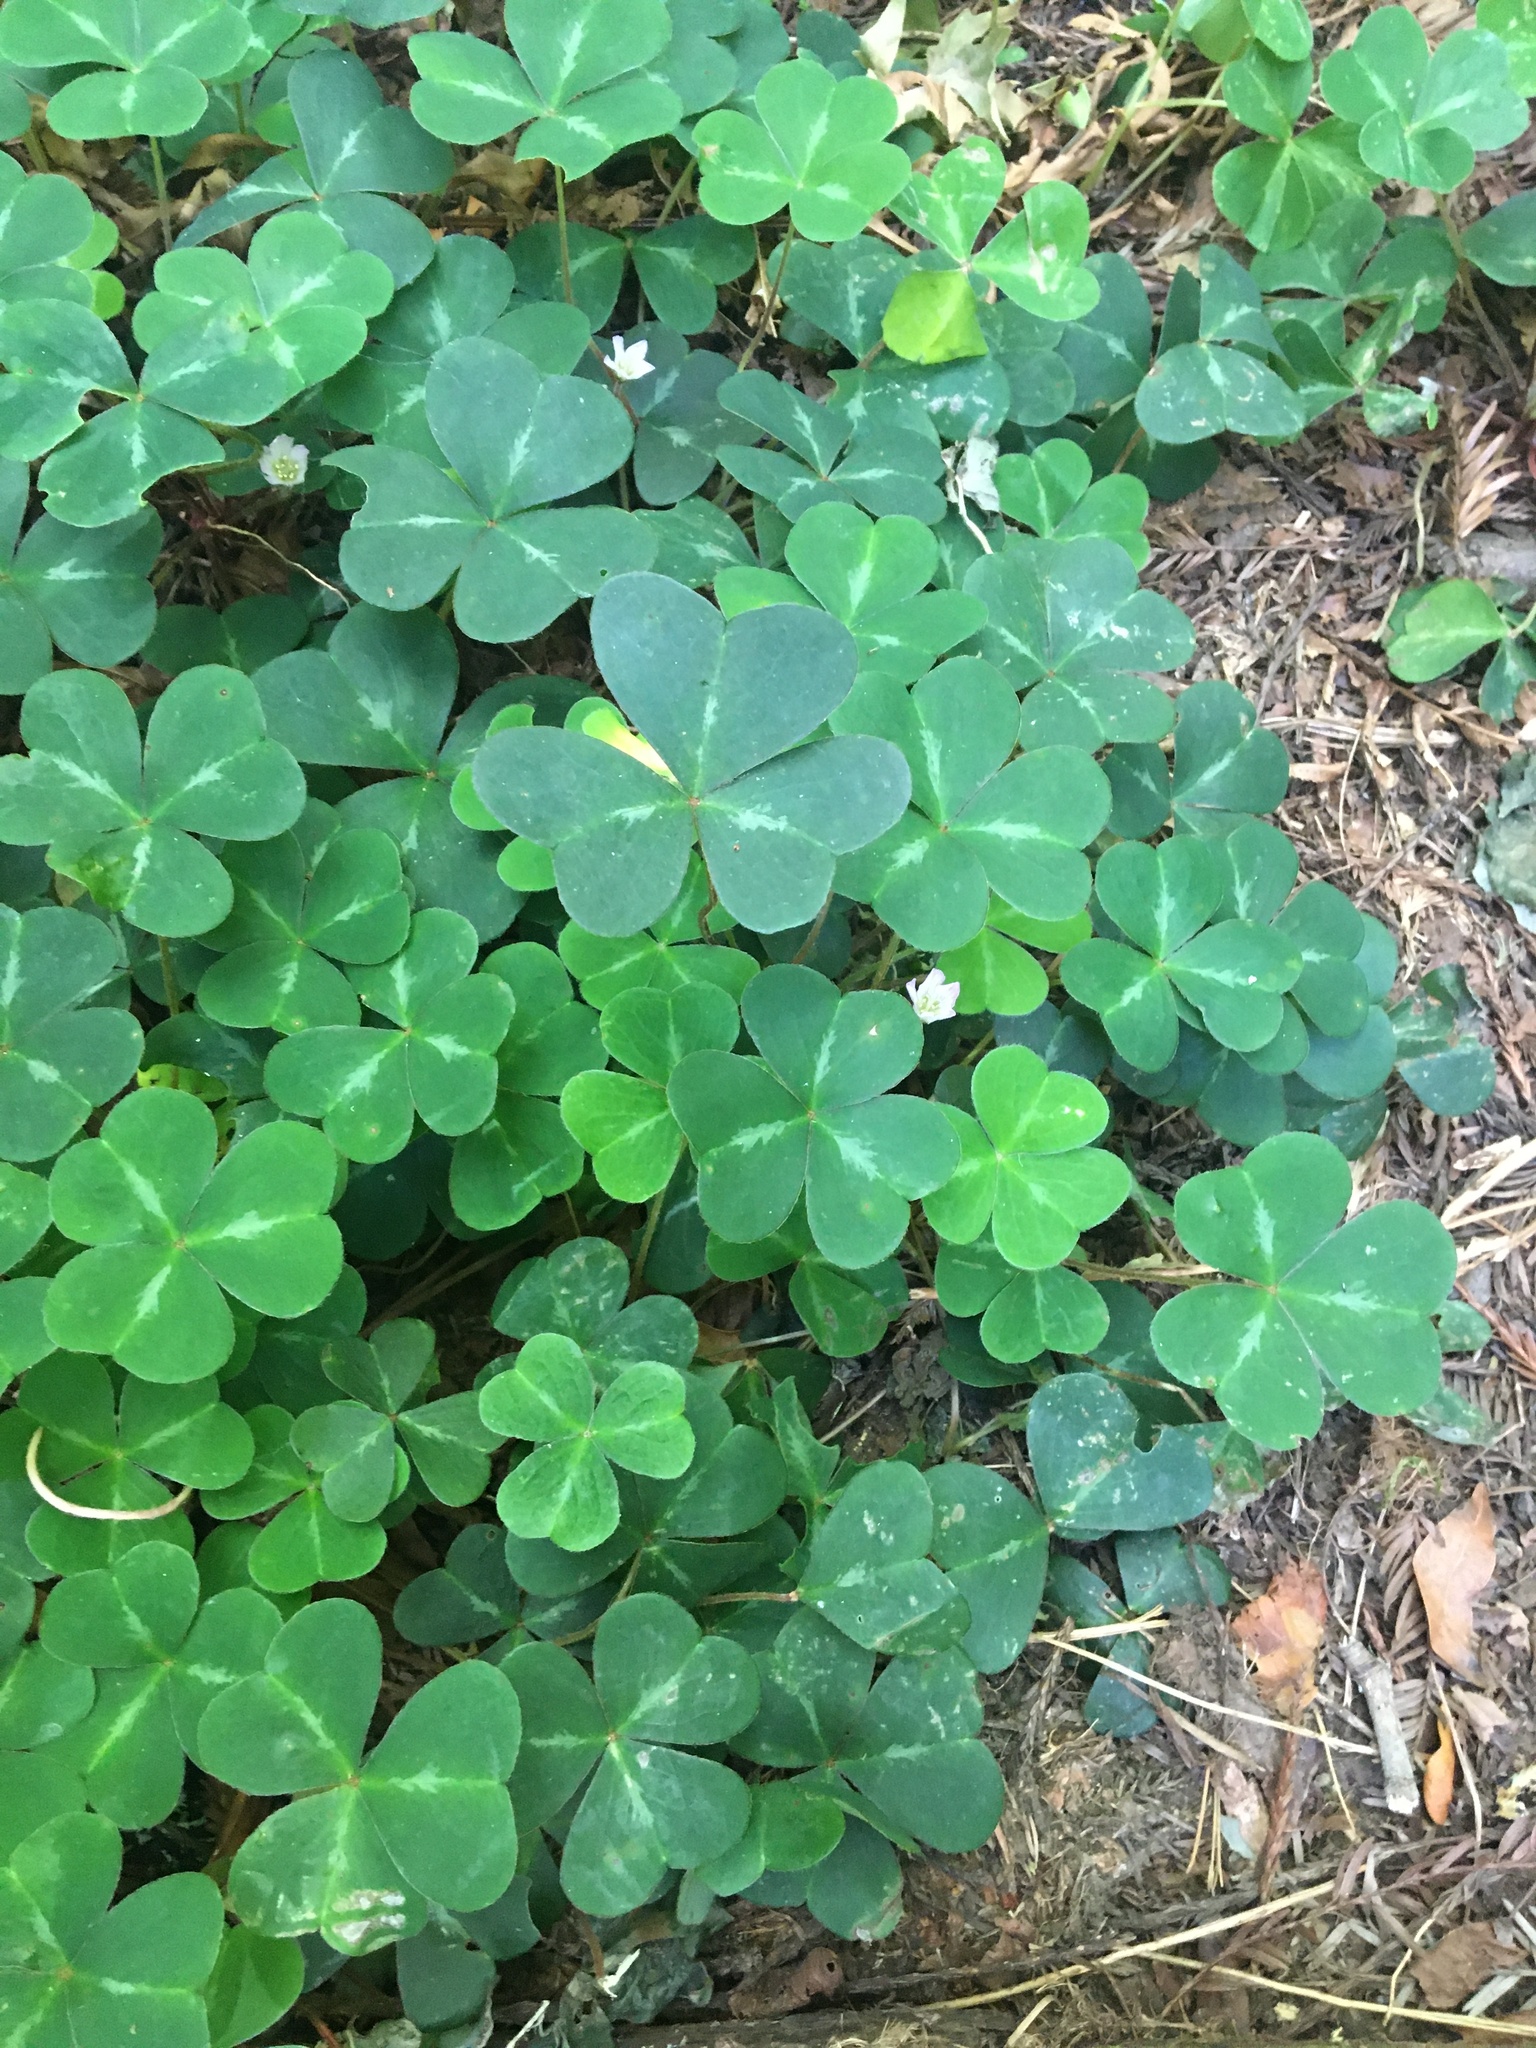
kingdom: Plantae
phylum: Tracheophyta
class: Magnoliopsida
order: Oxalidales
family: Oxalidaceae
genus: Oxalis
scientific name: Oxalis oregana
